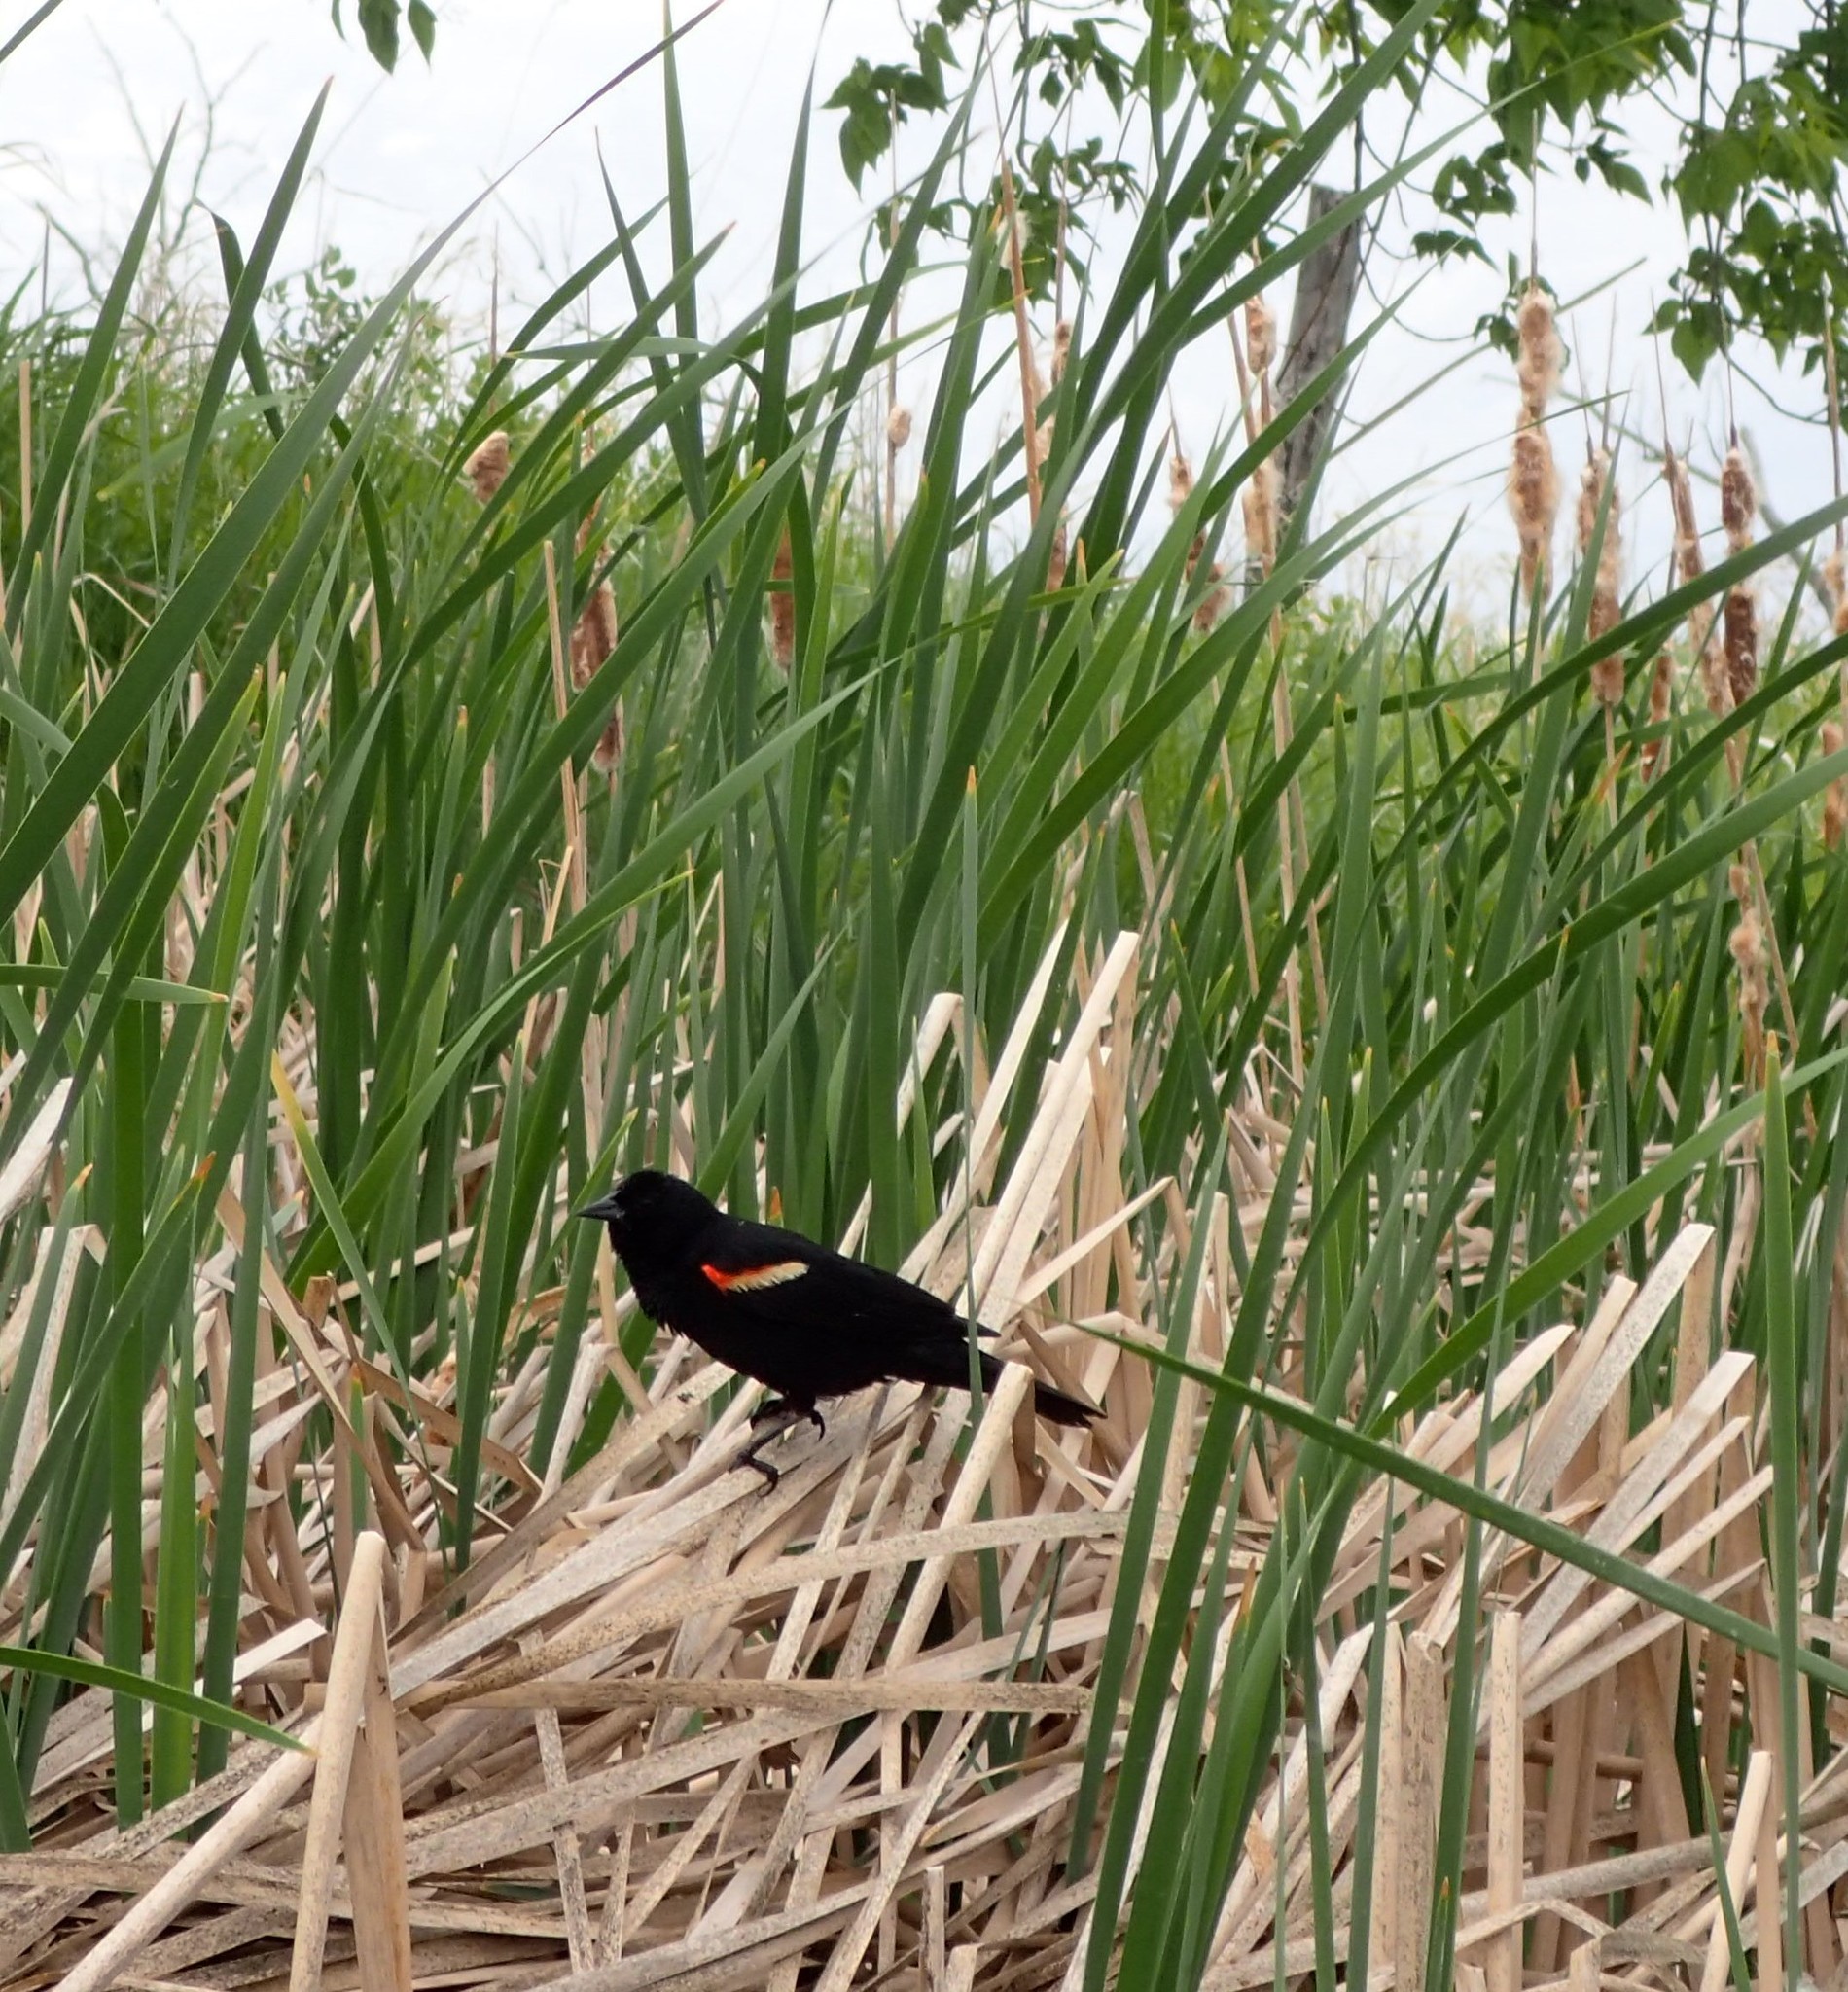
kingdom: Animalia
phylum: Chordata
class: Aves
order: Passeriformes
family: Icteridae
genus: Agelaius
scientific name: Agelaius phoeniceus
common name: Red-winged blackbird
